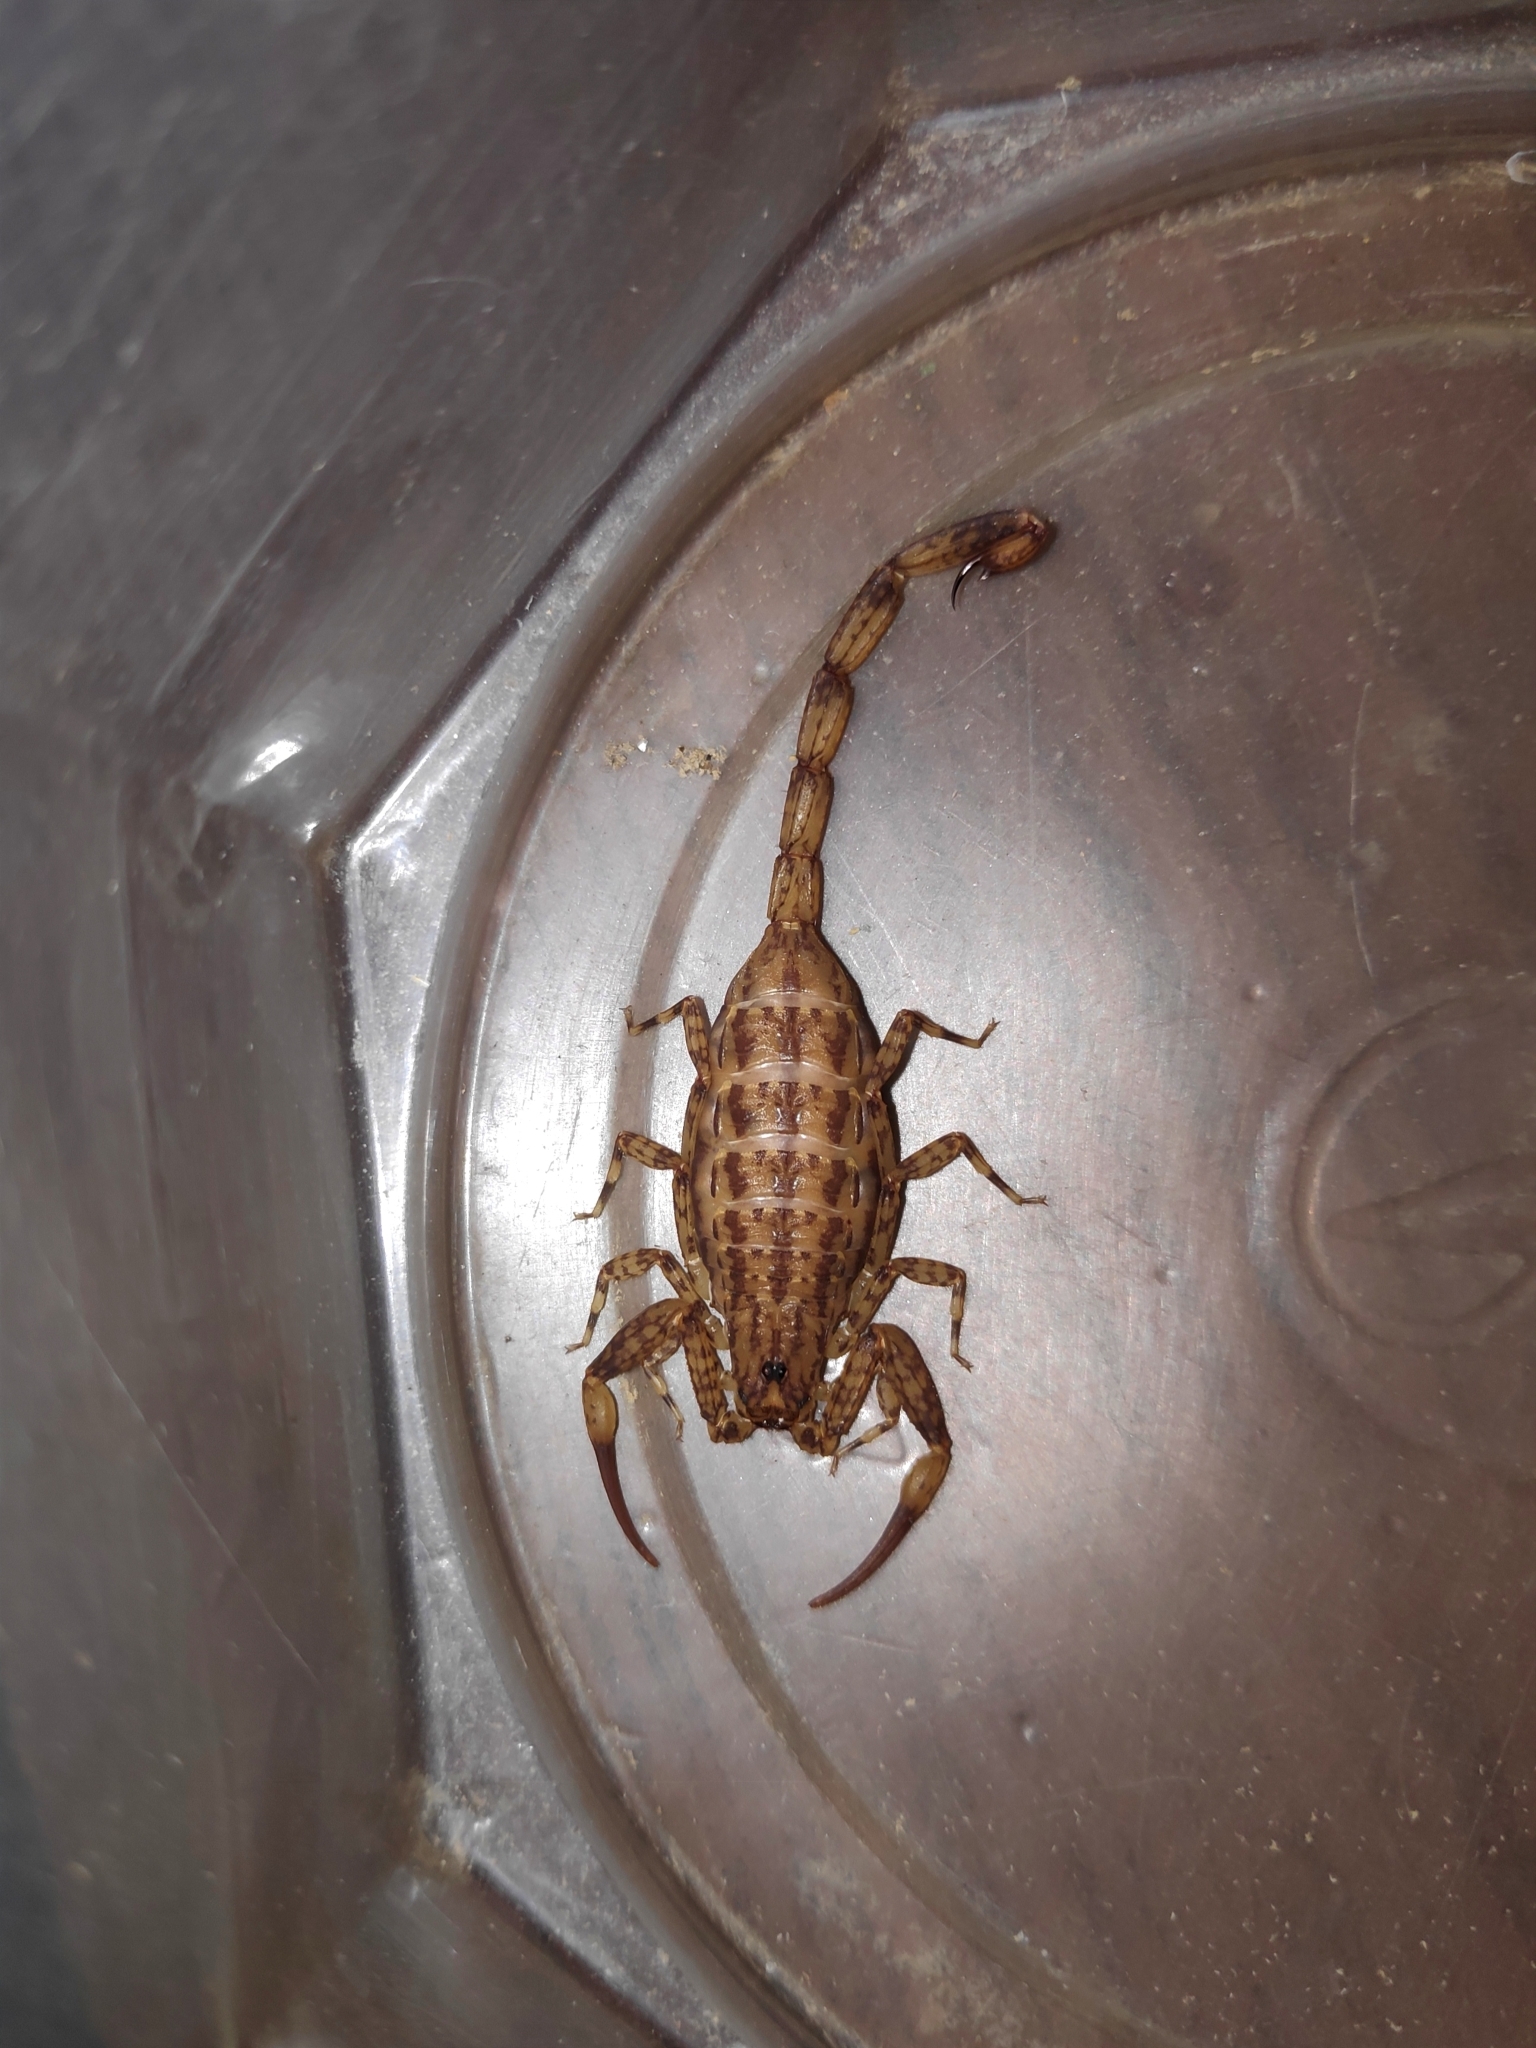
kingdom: Animalia
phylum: Arthropoda
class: Arachnida
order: Scorpiones
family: Buthidae
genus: Isometrus
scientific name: Isometrus maculatus
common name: Scorpions
